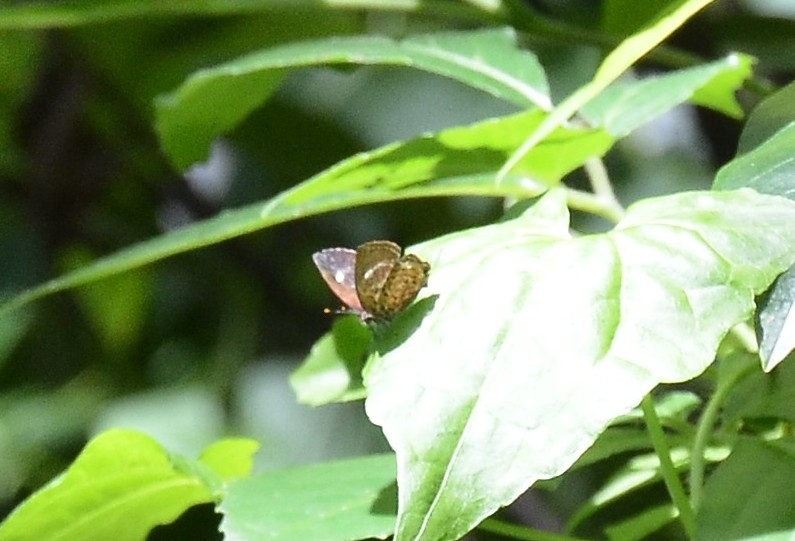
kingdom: Animalia
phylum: Arthropoda
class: Insecta
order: Lepidoptera
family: Lycaenidae
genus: Rathinda
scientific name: Rathinda amor
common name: Monkey puzzle
